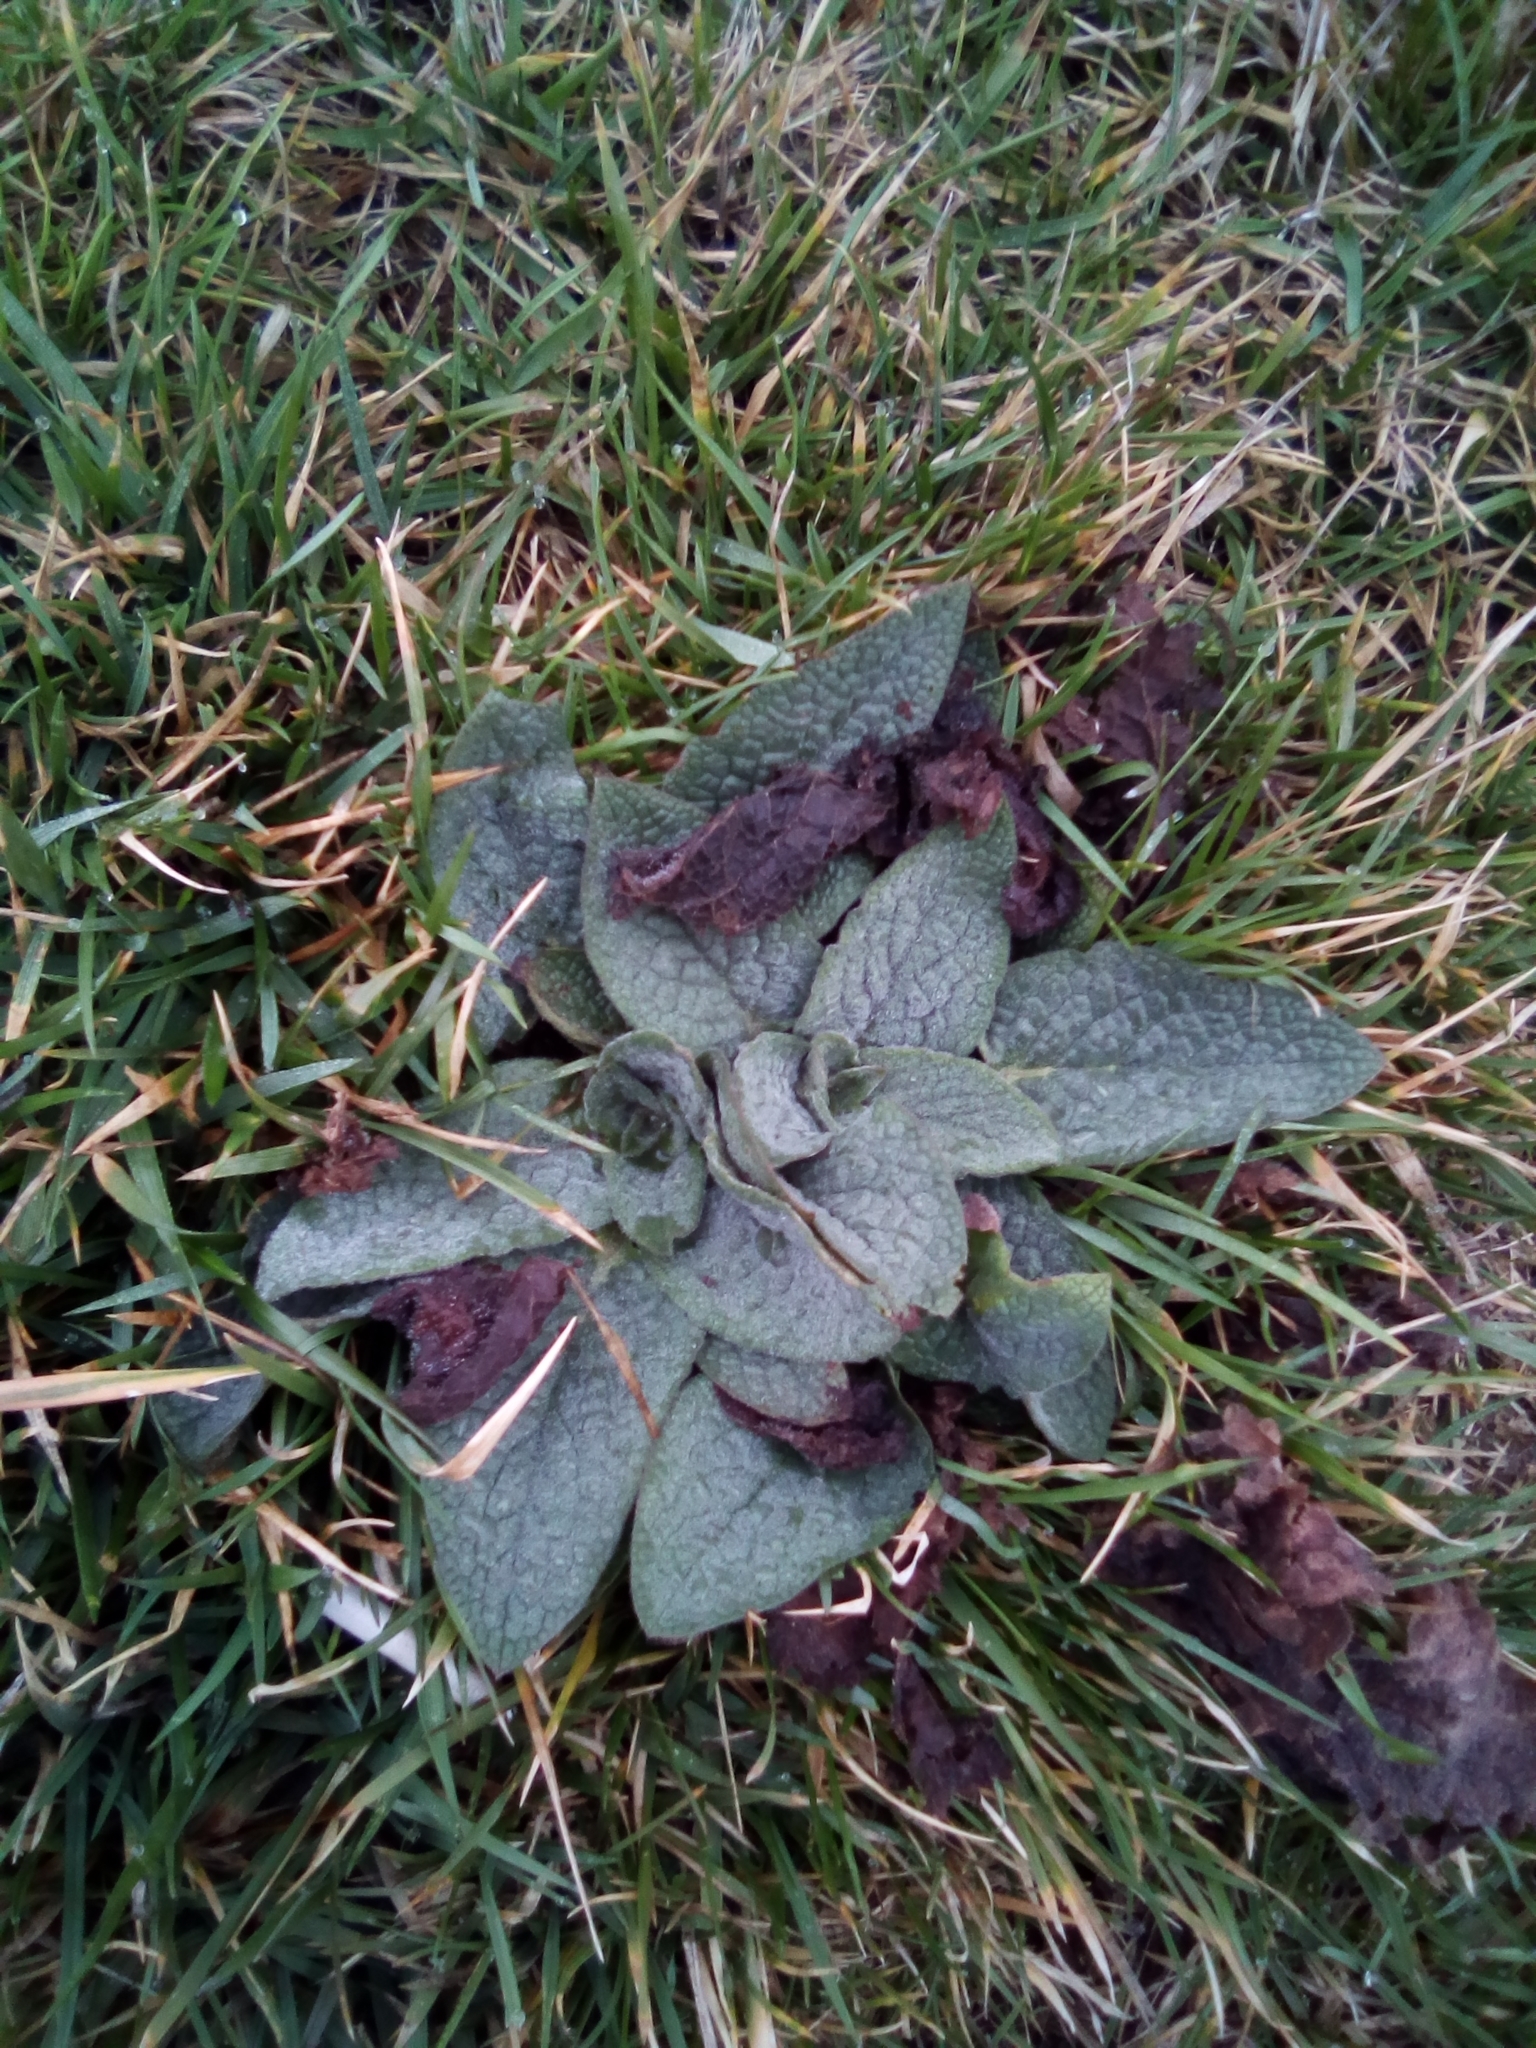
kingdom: Plantae
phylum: Tracheophyta
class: Magnoliopsida
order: Boraginales
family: Boraginaceae
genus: Symphytum
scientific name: Symphytum caucasicum
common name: Caucasian comfrey
